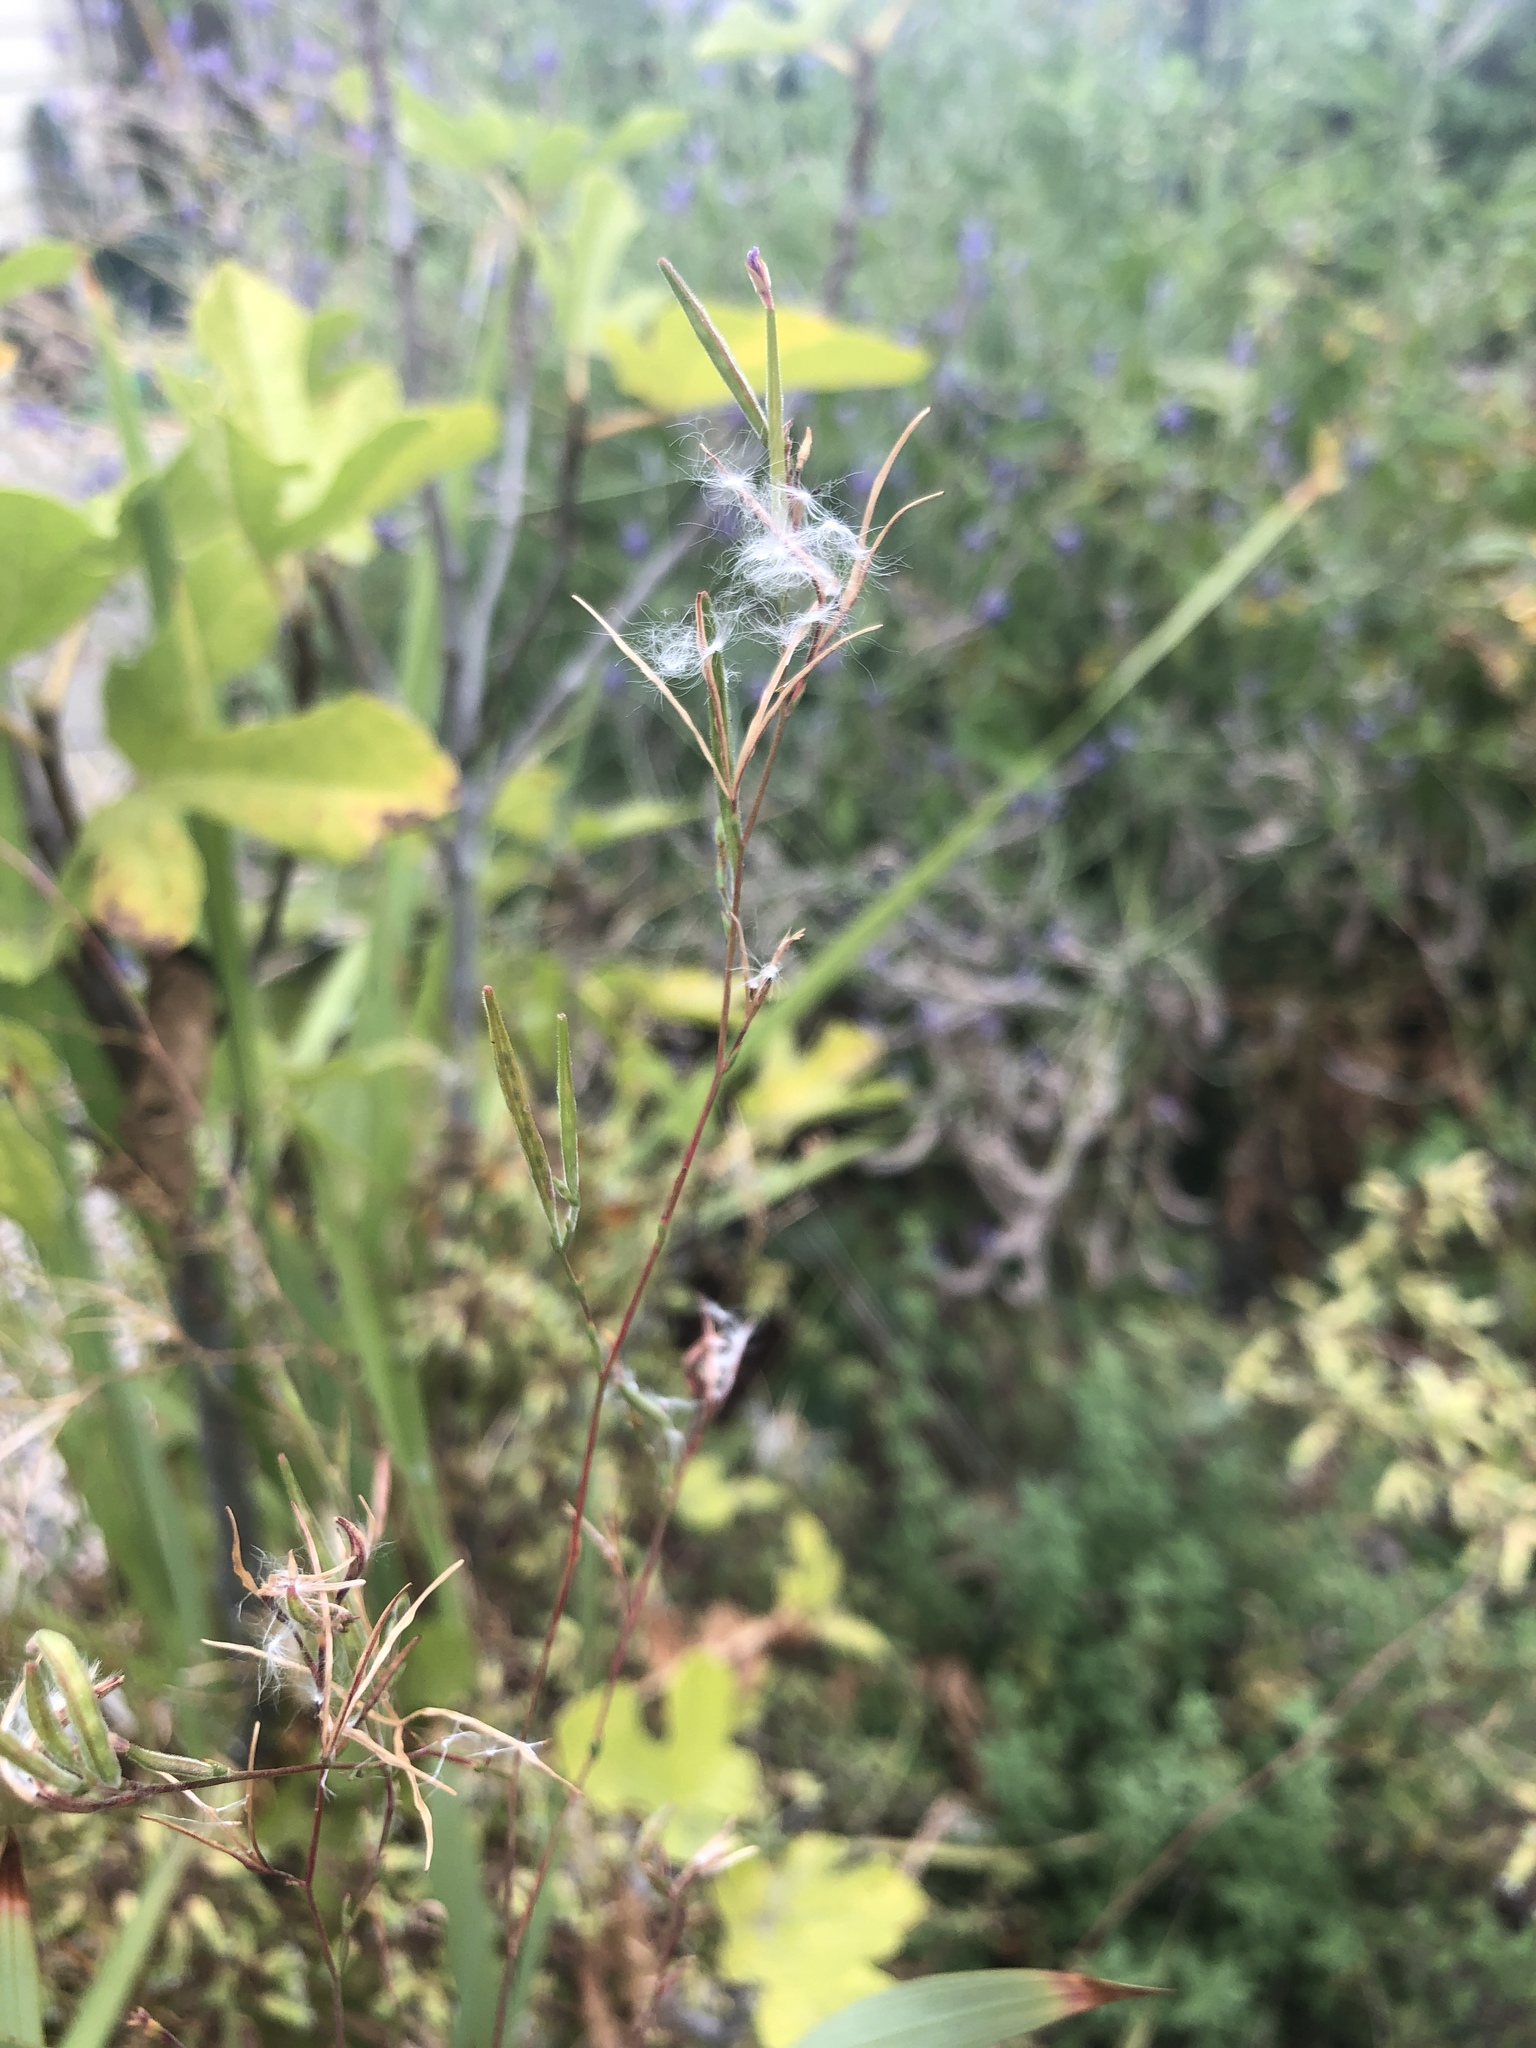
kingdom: Plantae
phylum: Tracheophyta
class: Magnoliopsida
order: Myrtales
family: Onagraceae
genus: Epilobium
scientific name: Epilobium brachycarpum
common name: Annual willowherb
